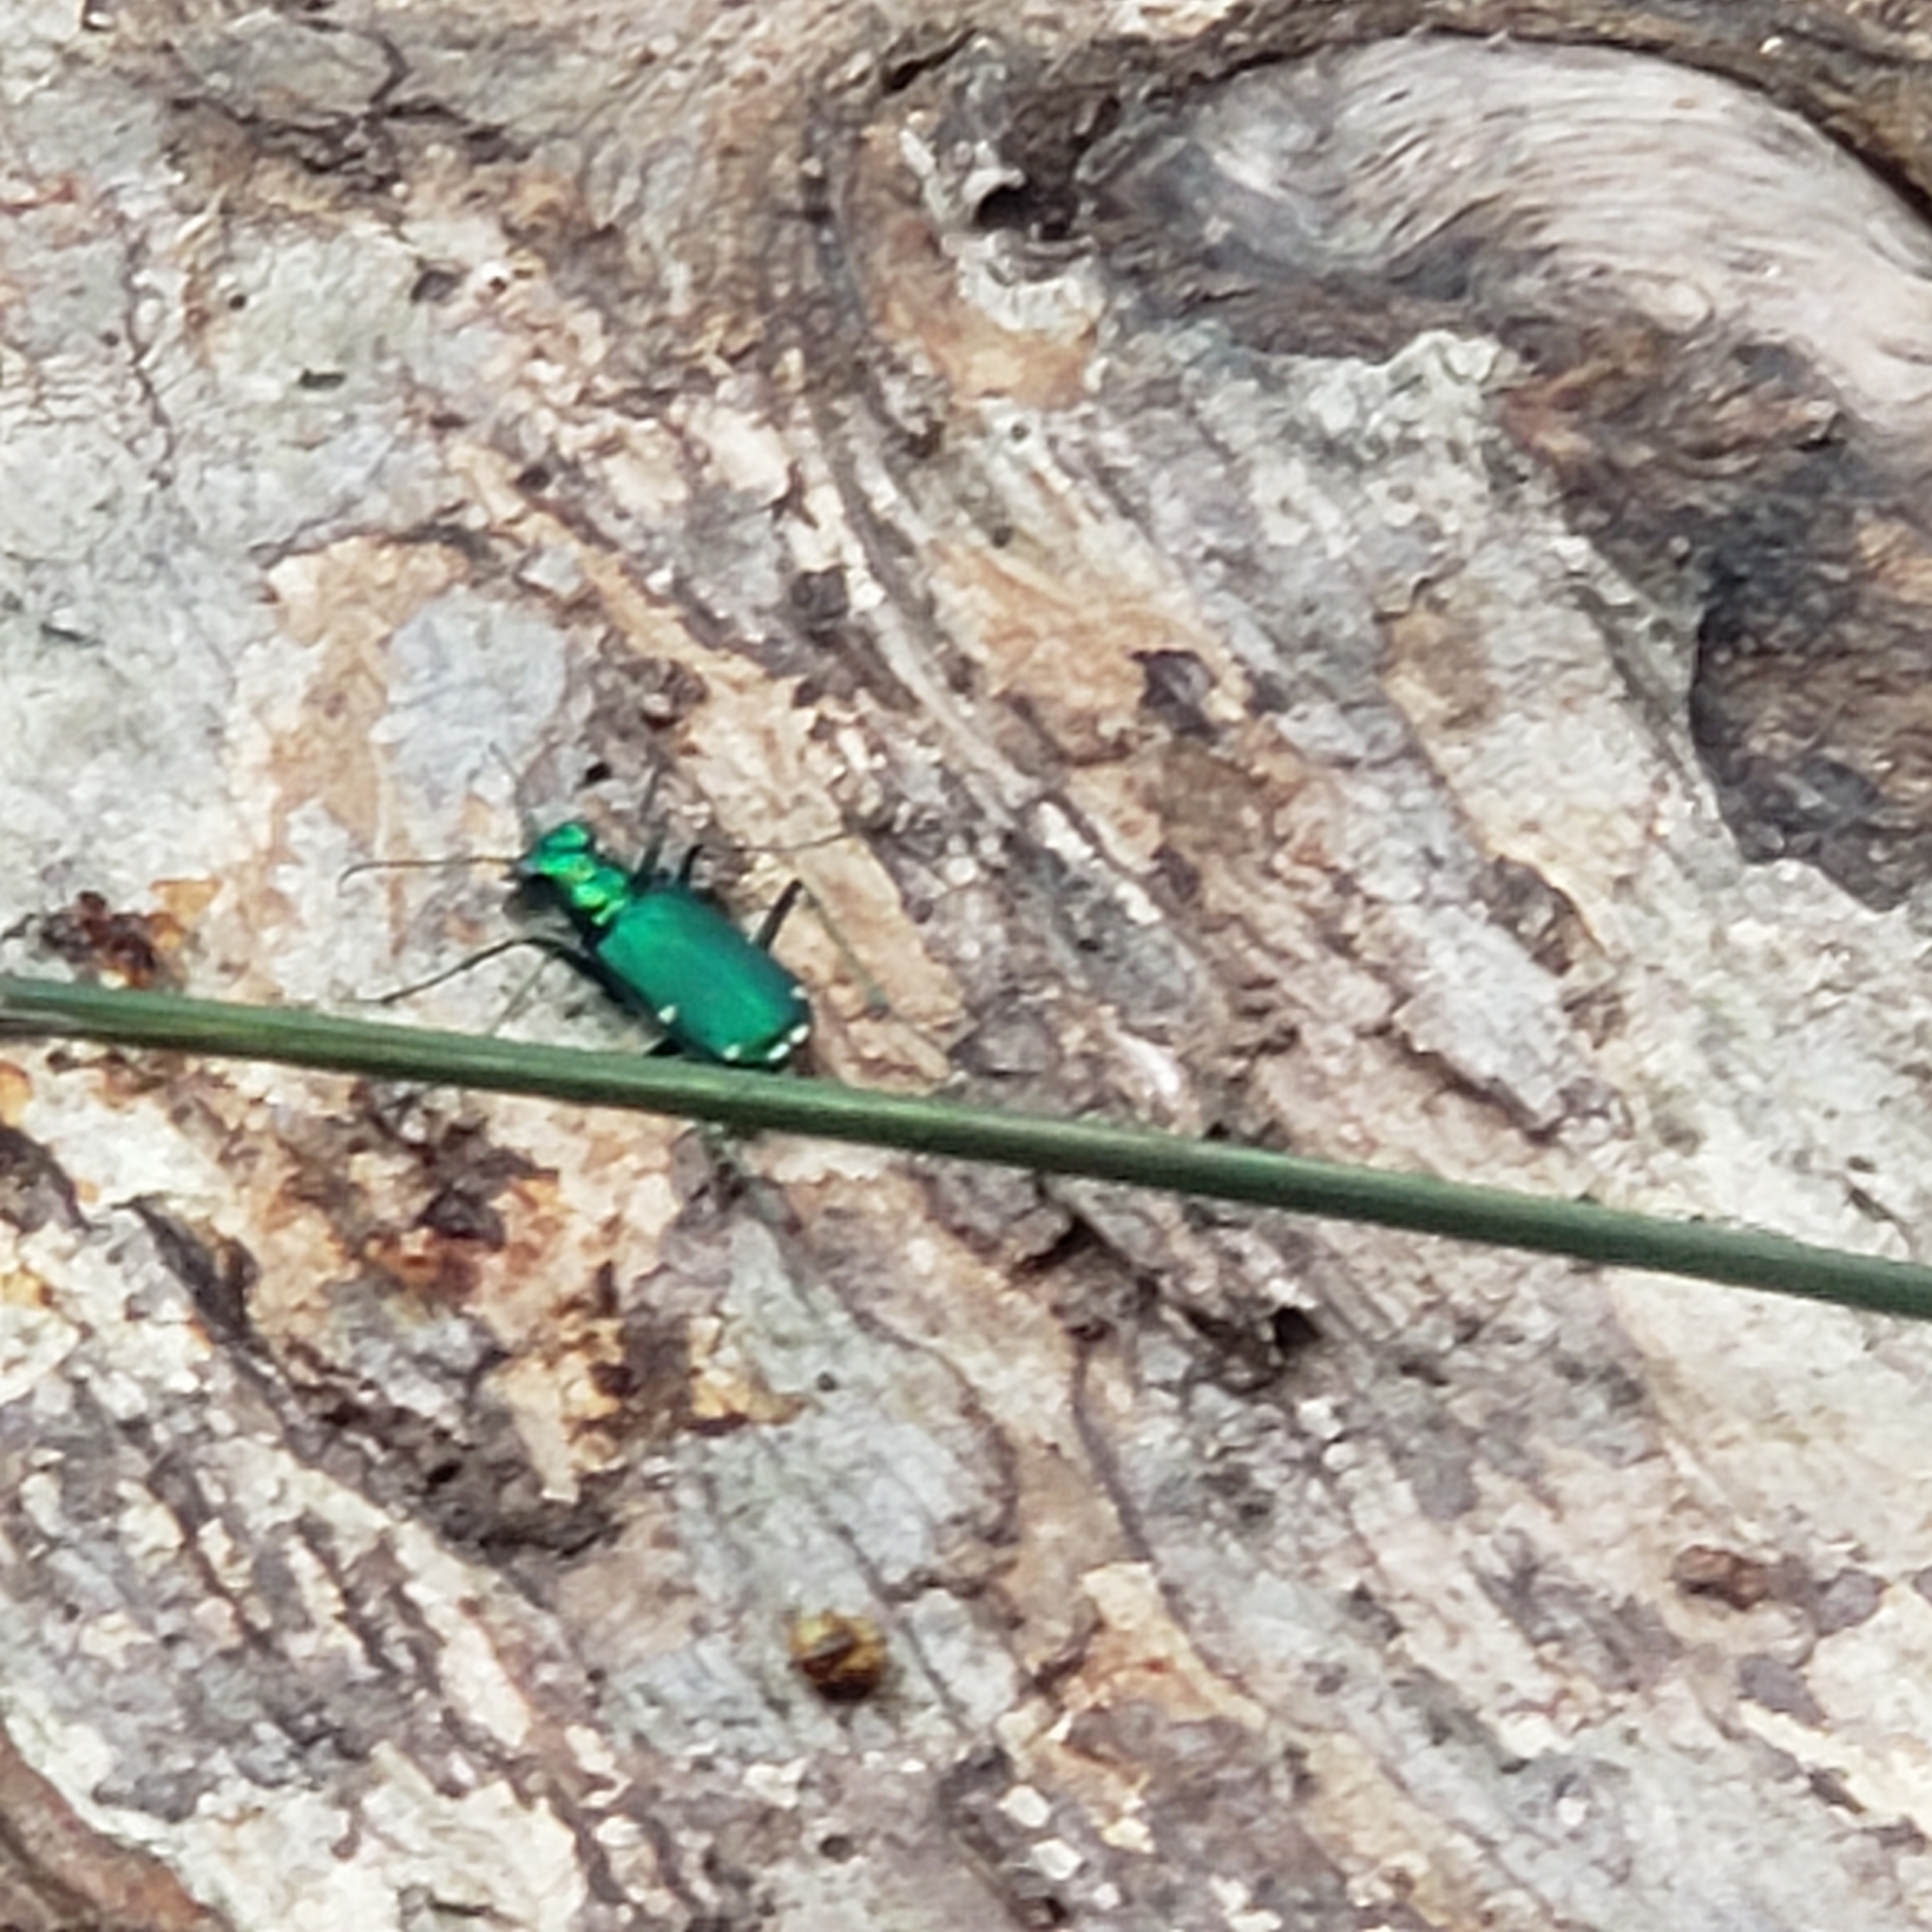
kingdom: Animalia
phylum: Arthropoda
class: Insecta
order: Coleoptera
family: Carabidae
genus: Cicindela
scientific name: Cicindela sexguttata
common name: Six-spotted tiger beetle
